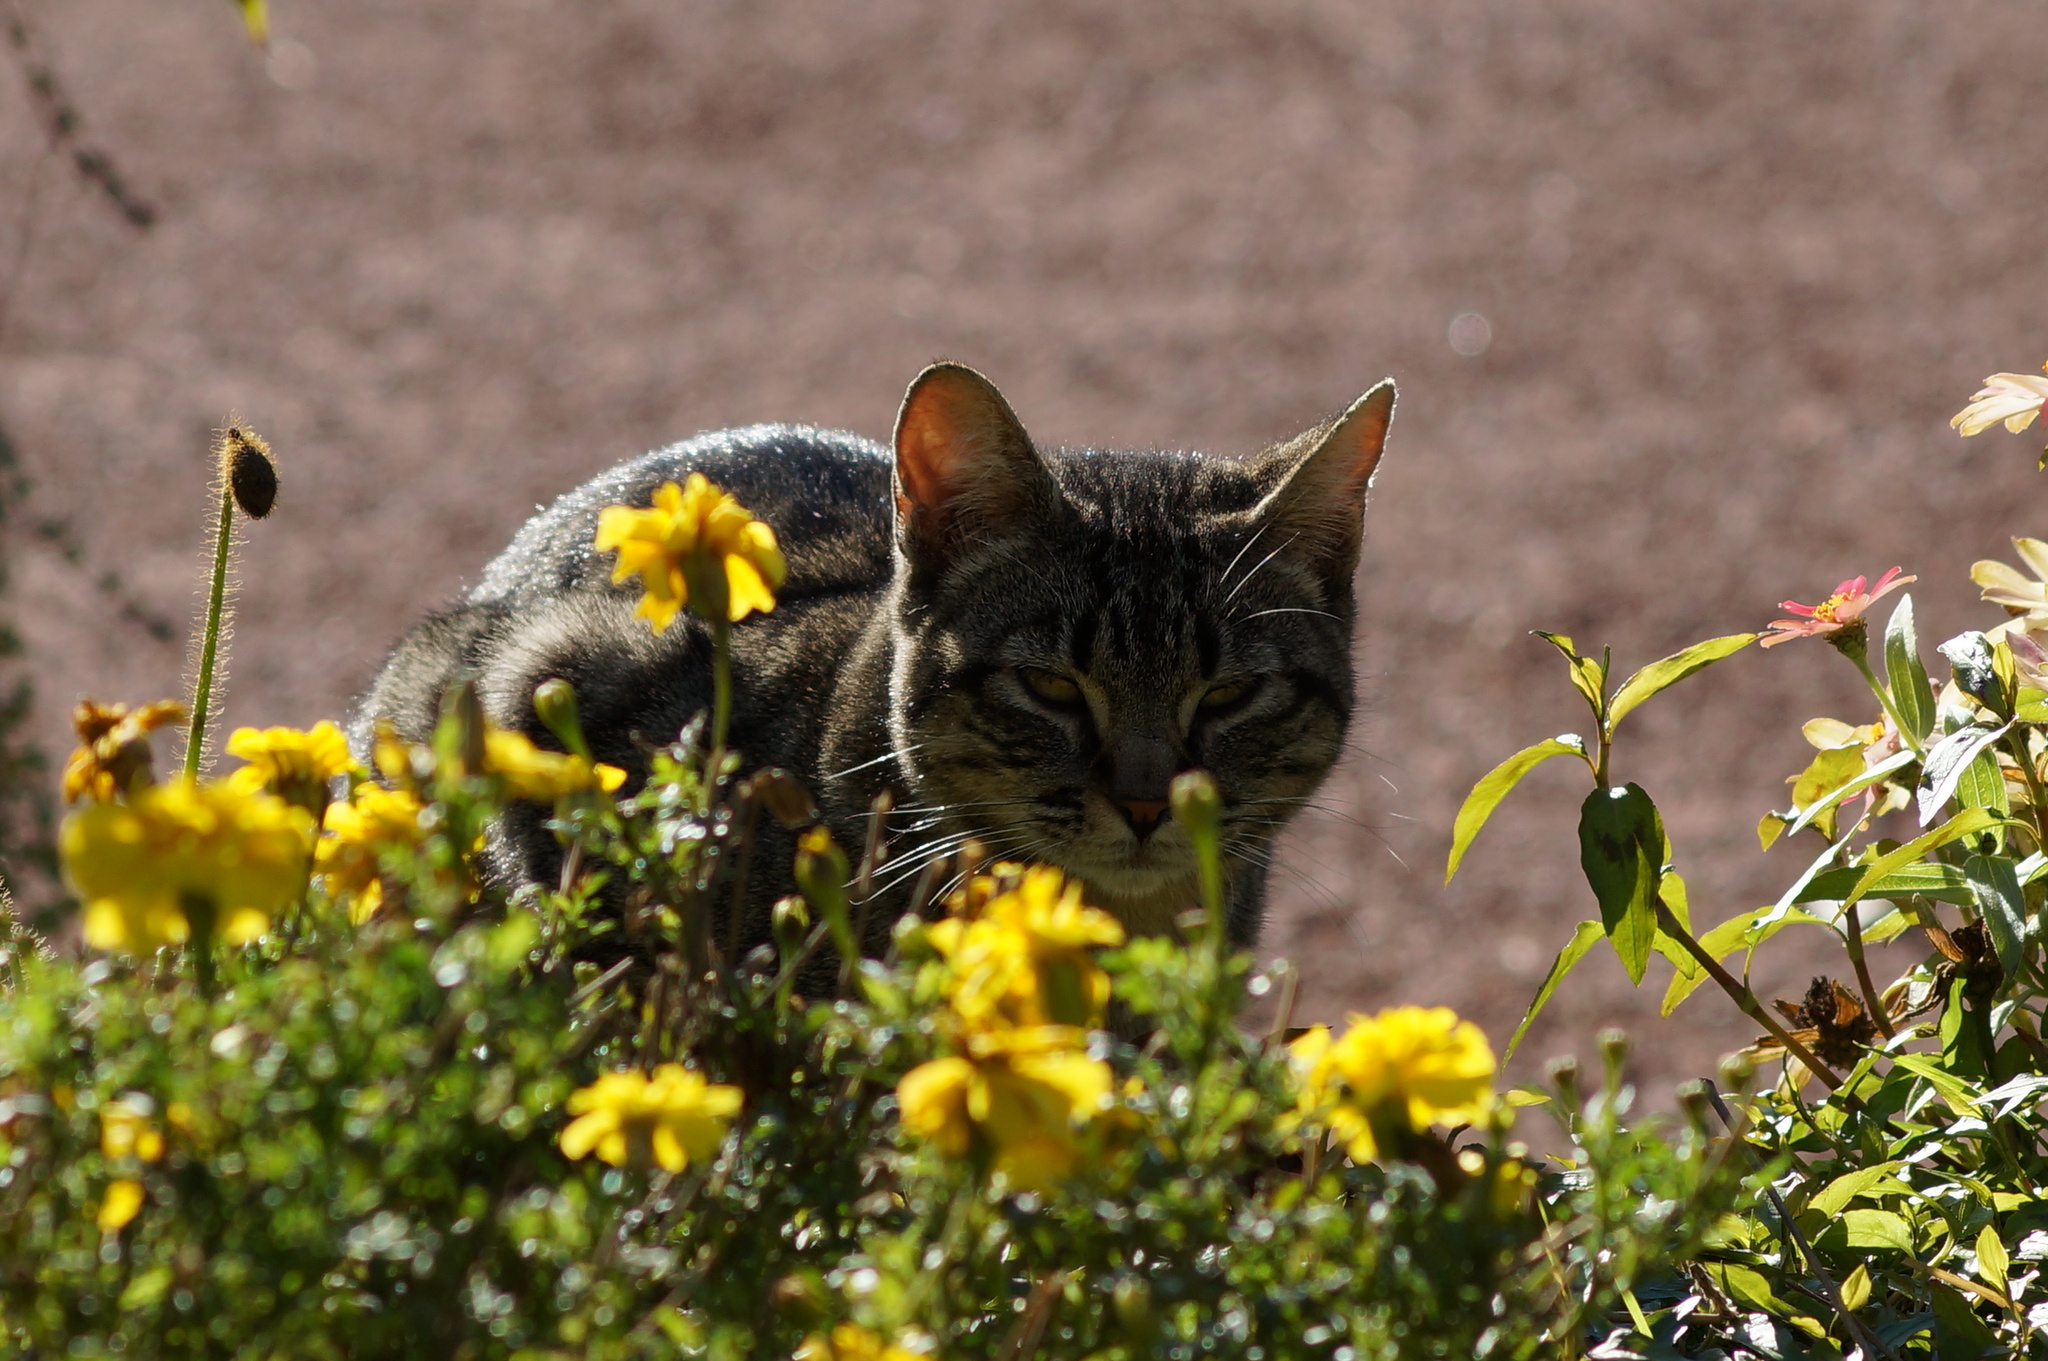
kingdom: Animalia
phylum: Chordata
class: Mammalia
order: Carnivora
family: Felidae
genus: Felis
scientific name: Felis catus
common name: Domestic cat
